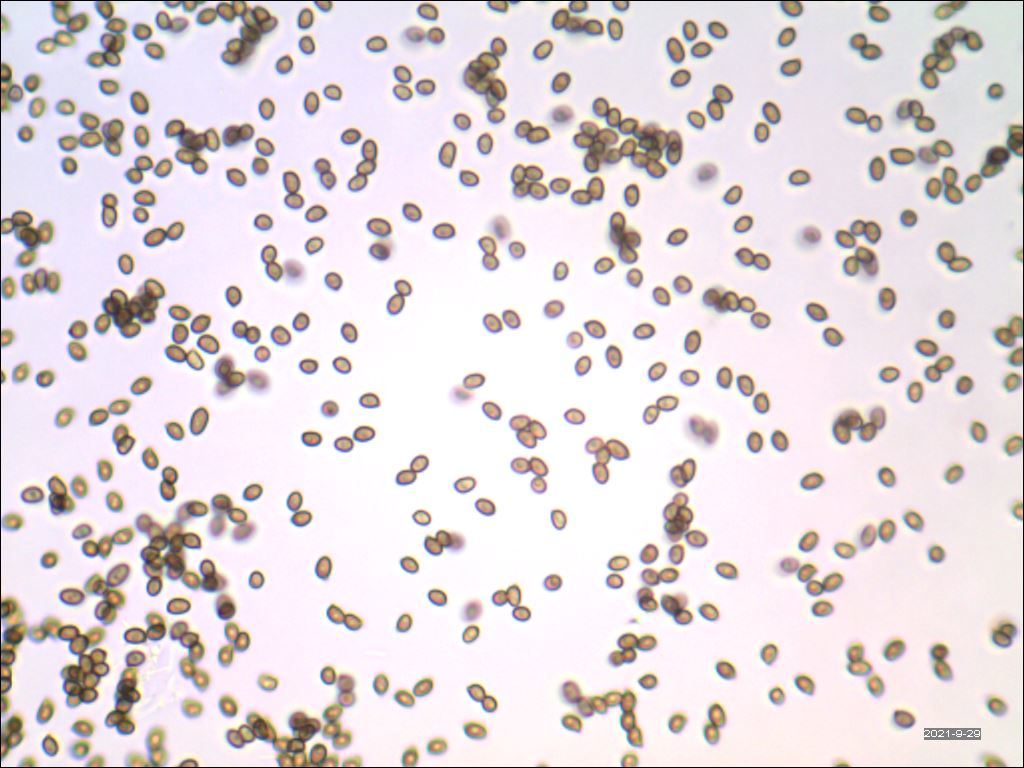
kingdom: Fungi
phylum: Basidiomycota
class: Agaricomycetes
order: Agaricales
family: Agaricaceae
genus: Agaricus
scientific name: Agaricus leptocaulis
